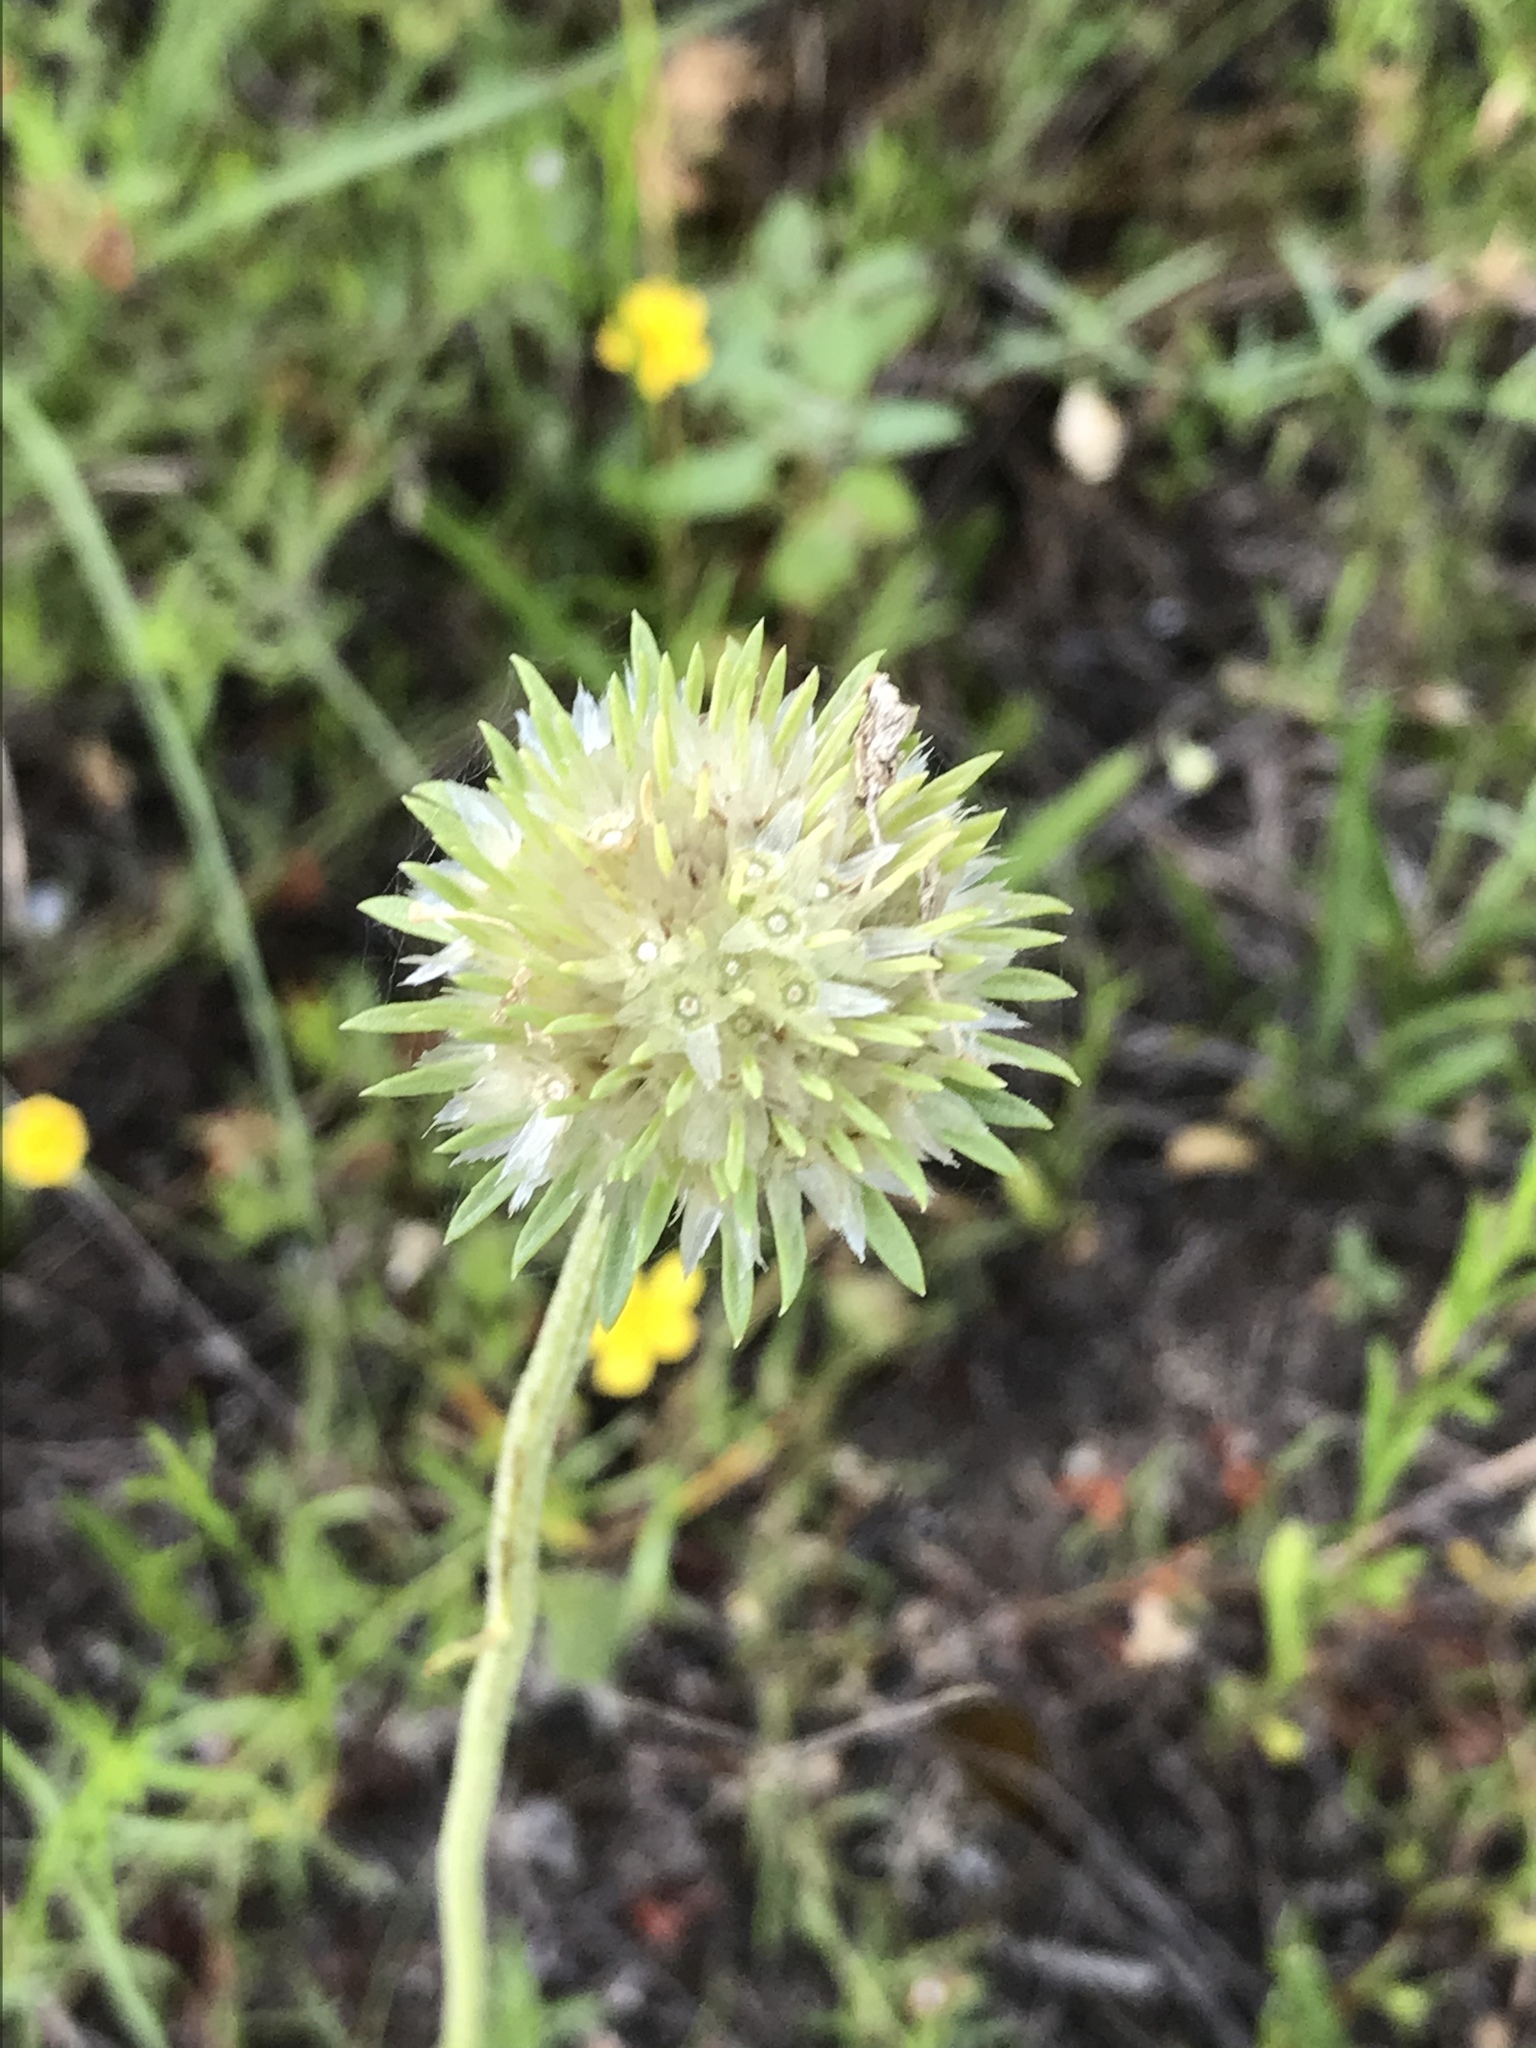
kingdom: Plantae
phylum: Tracheophyta
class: Magnoliopsida
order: Asterales
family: Asteraceae
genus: Marshallia
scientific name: Marshallia caespitosa
